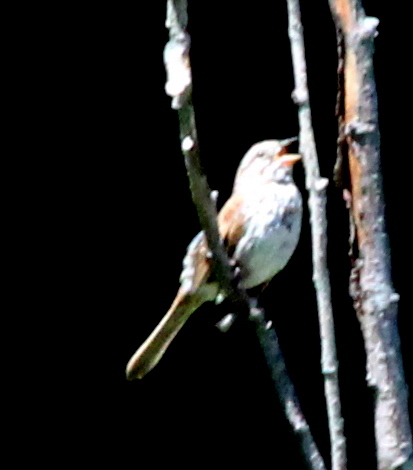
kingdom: Animalia
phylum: Chordata
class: Aves
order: Passeriformes
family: Passerellidae
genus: Melospiza
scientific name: Melospiza melodia
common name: Song sparrow
